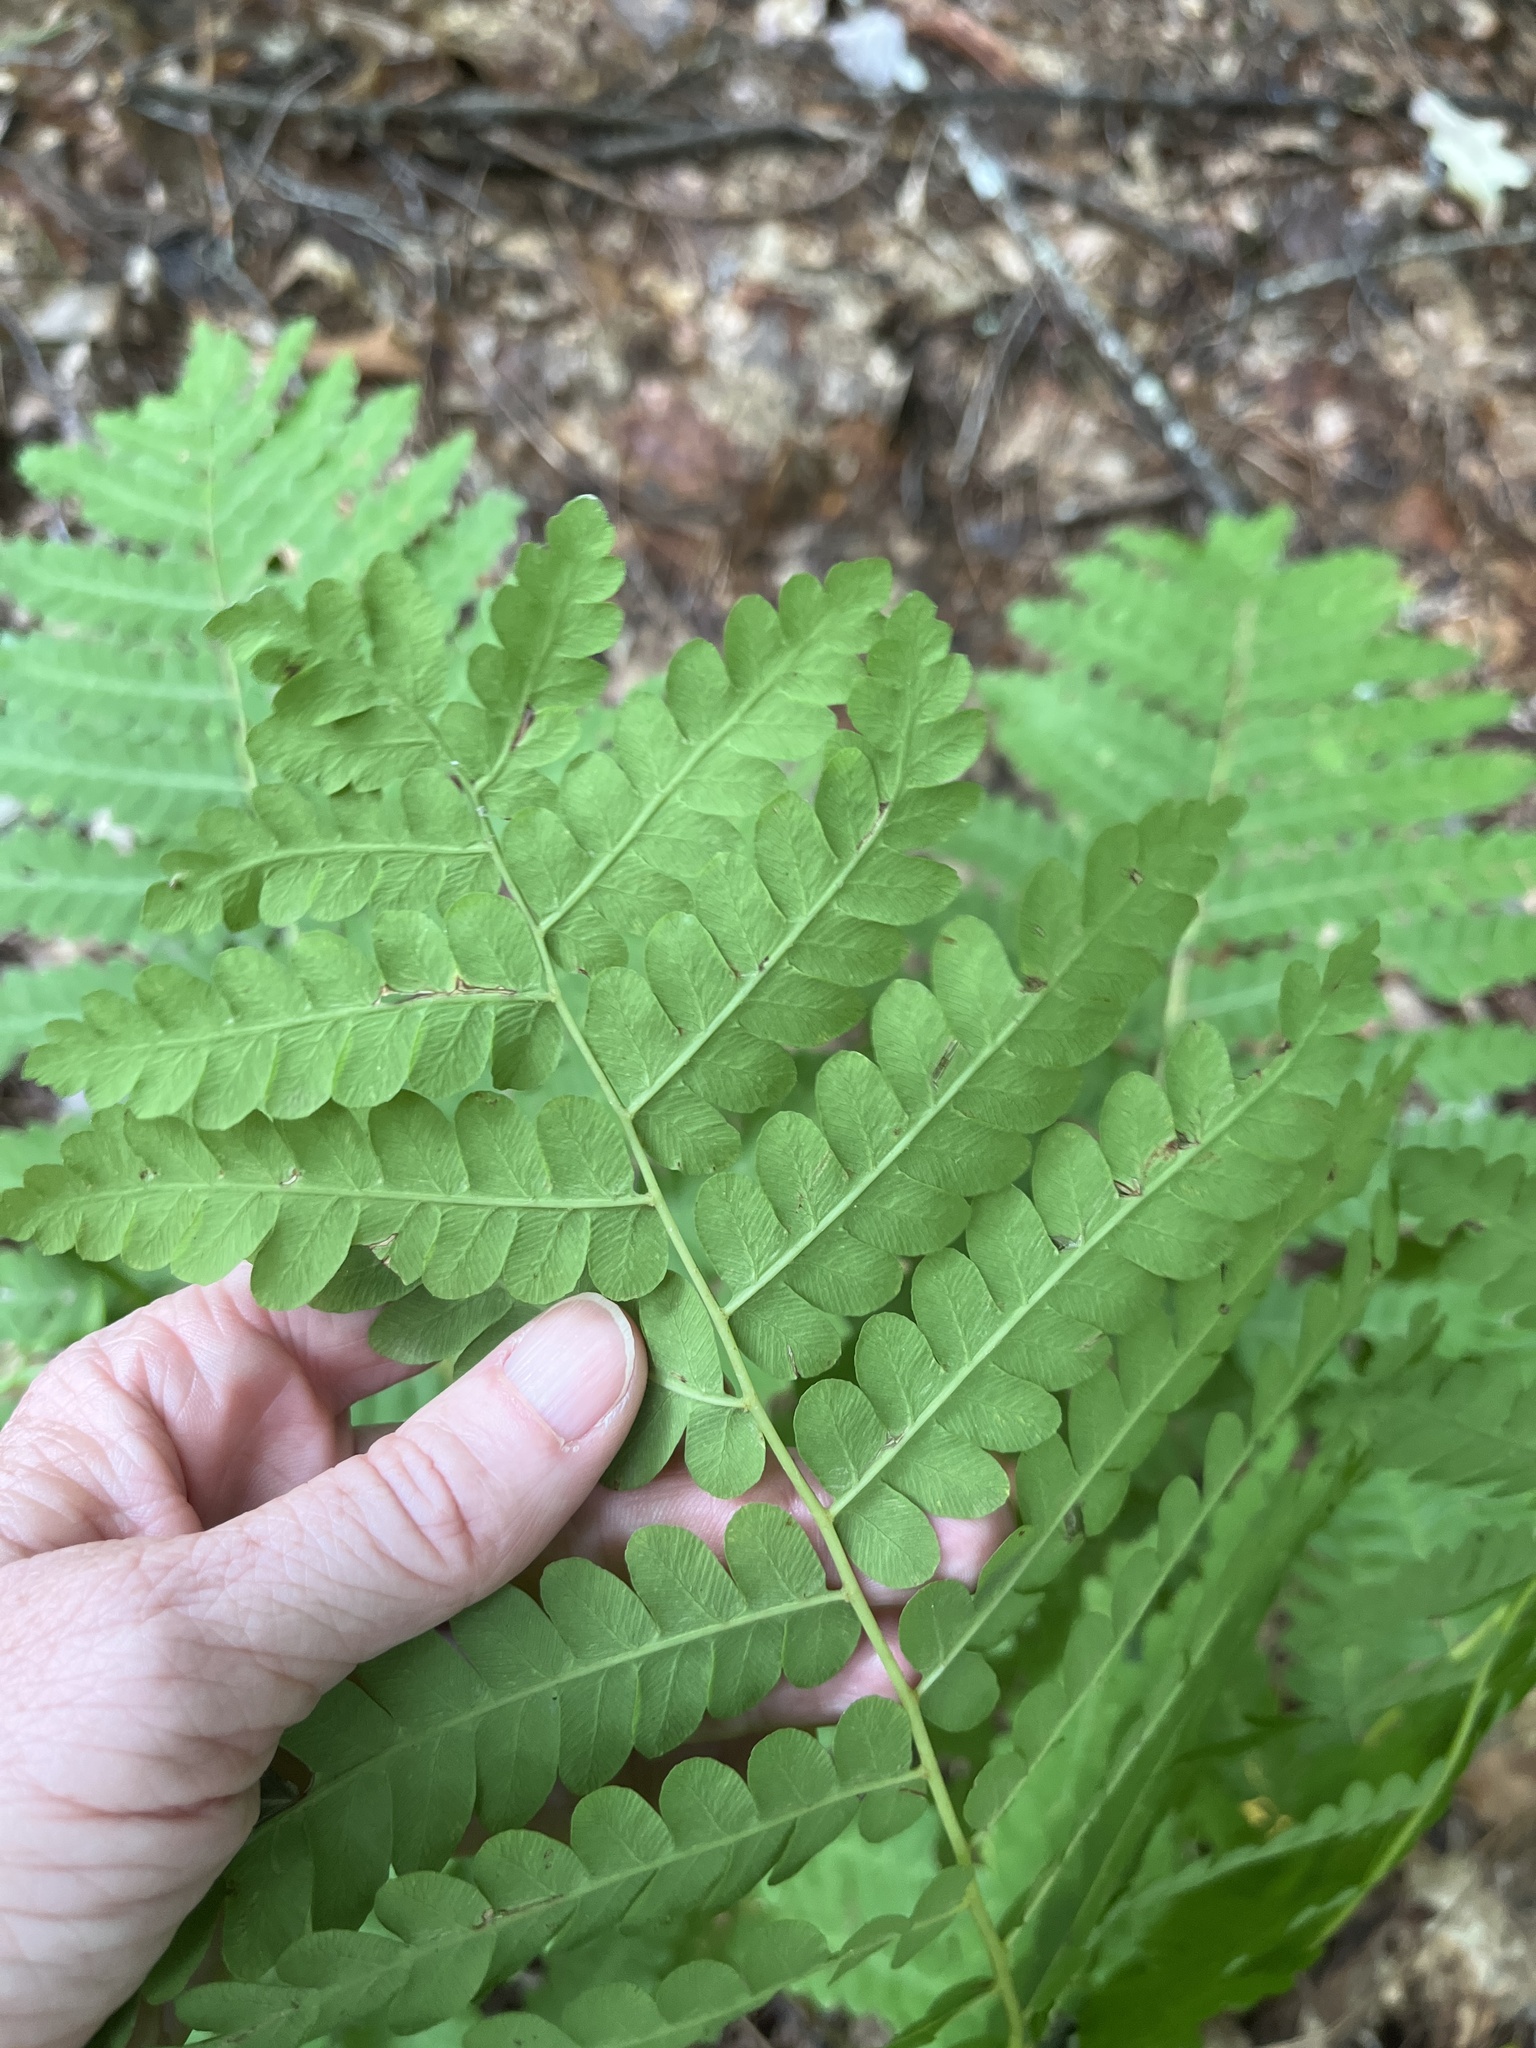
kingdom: Plantae
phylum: Tracheophyta
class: Polypodiopsida
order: Osmundales
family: Osmundaceae
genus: Claytosmunda
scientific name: Claytosmunda claytoniana
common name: Clayton's fern
